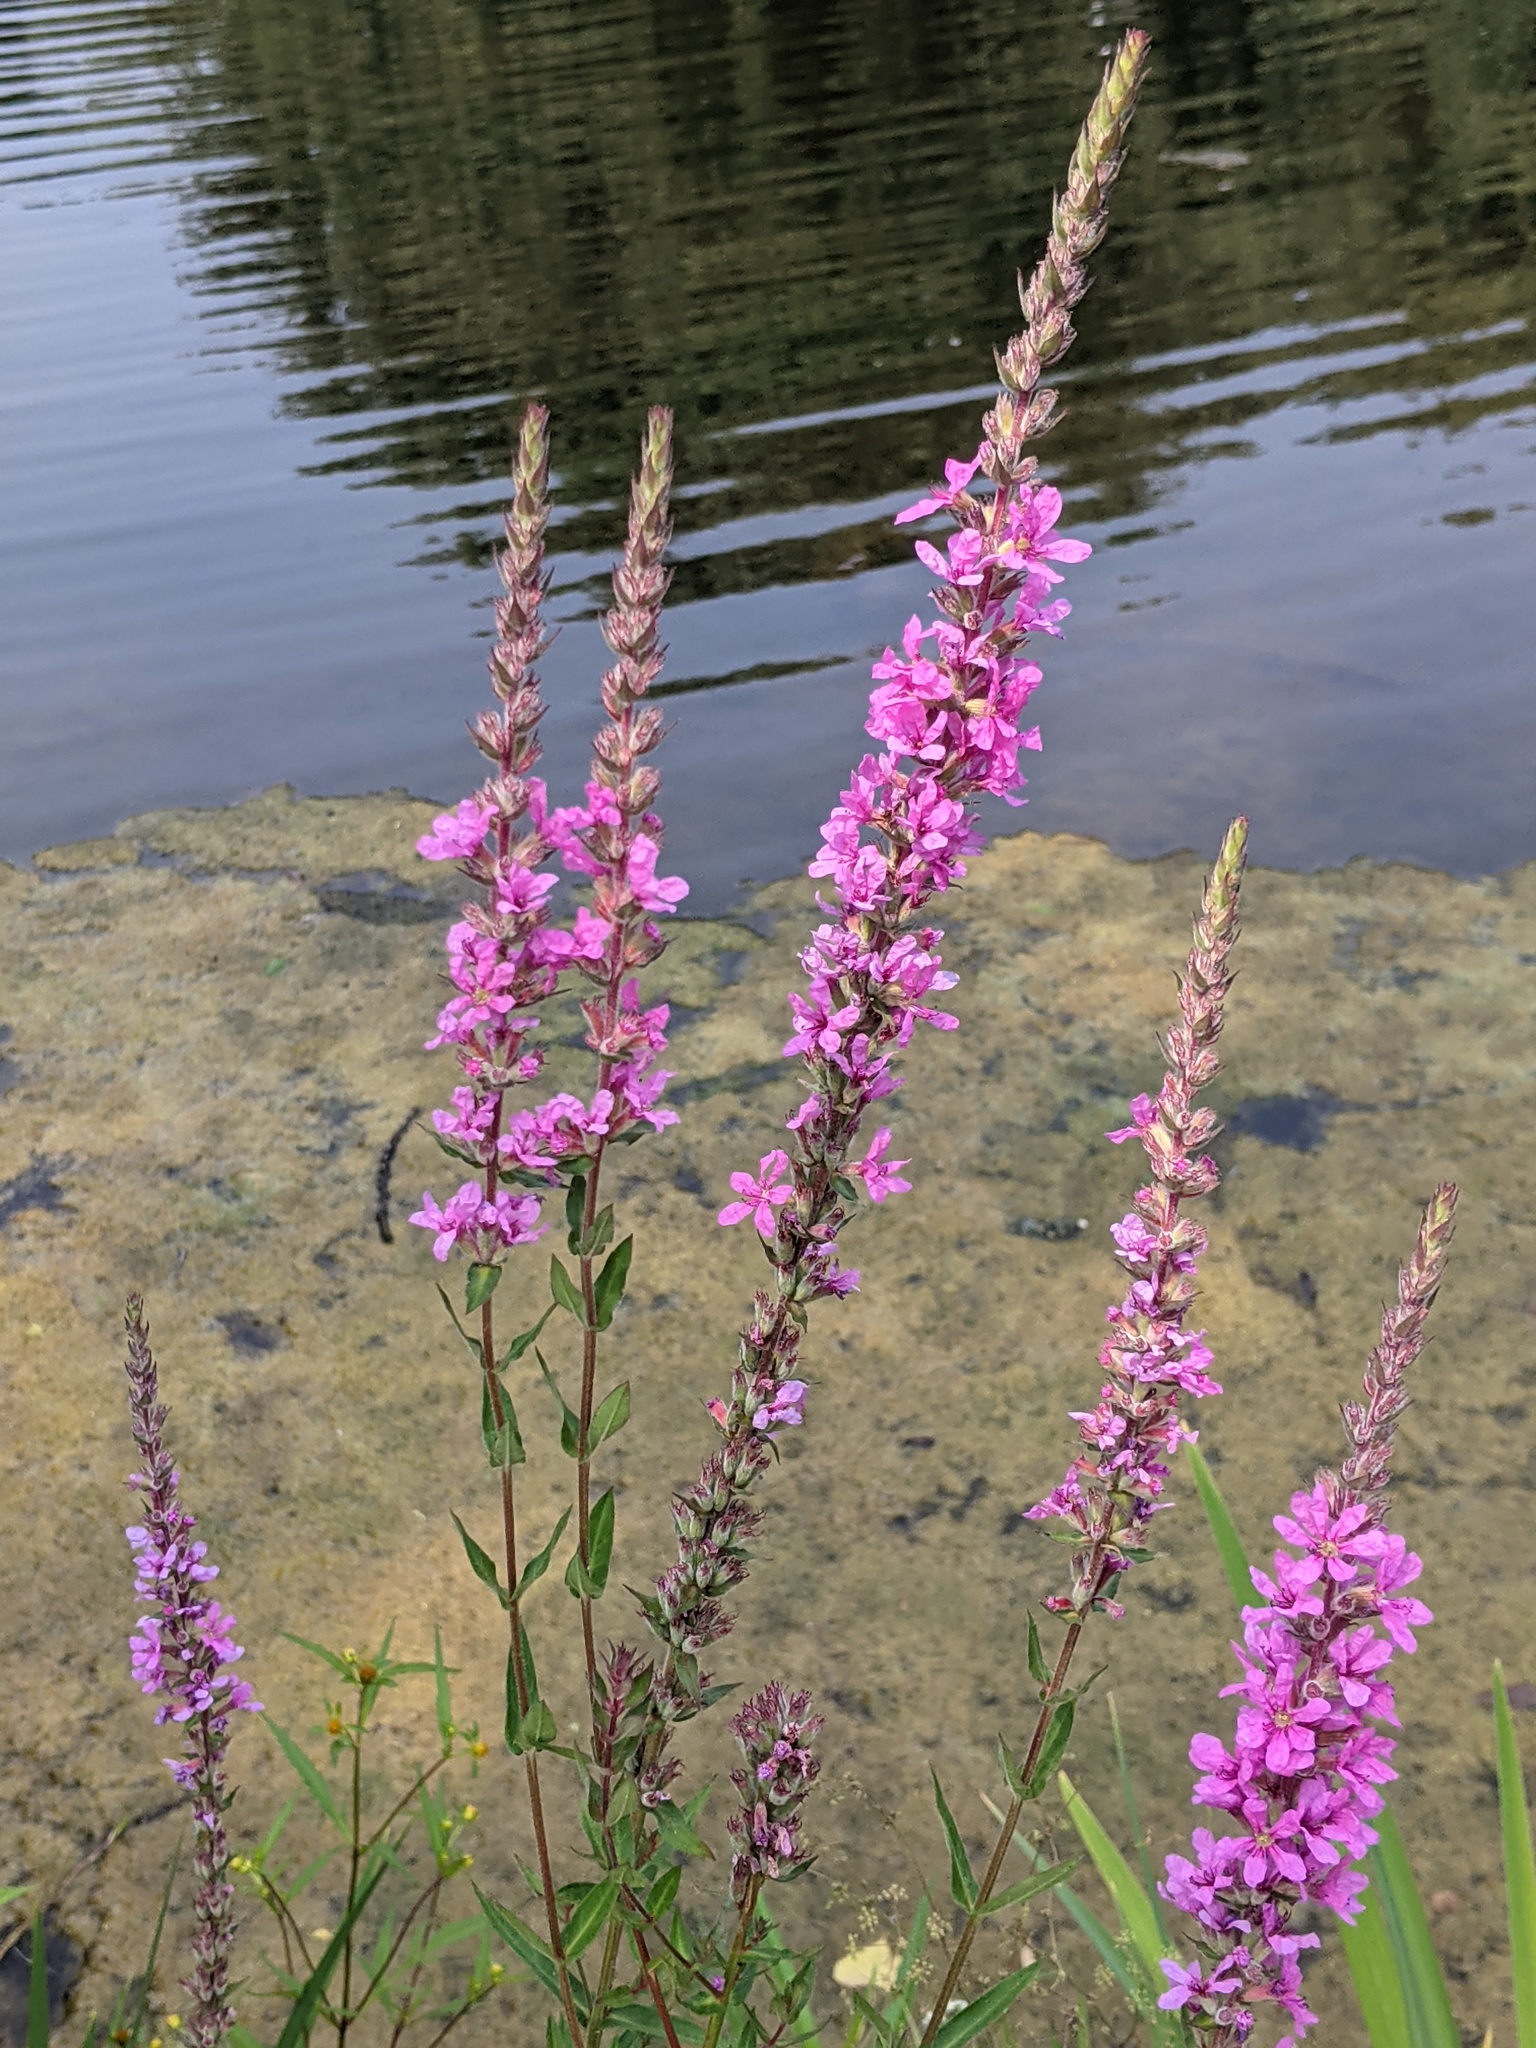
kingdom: Plantae
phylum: Tracheophyta
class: Magnoliopsida
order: Myrtales
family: Lythraceae
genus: Lythrum
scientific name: Lythrum salicaria
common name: Purple loosestrife
